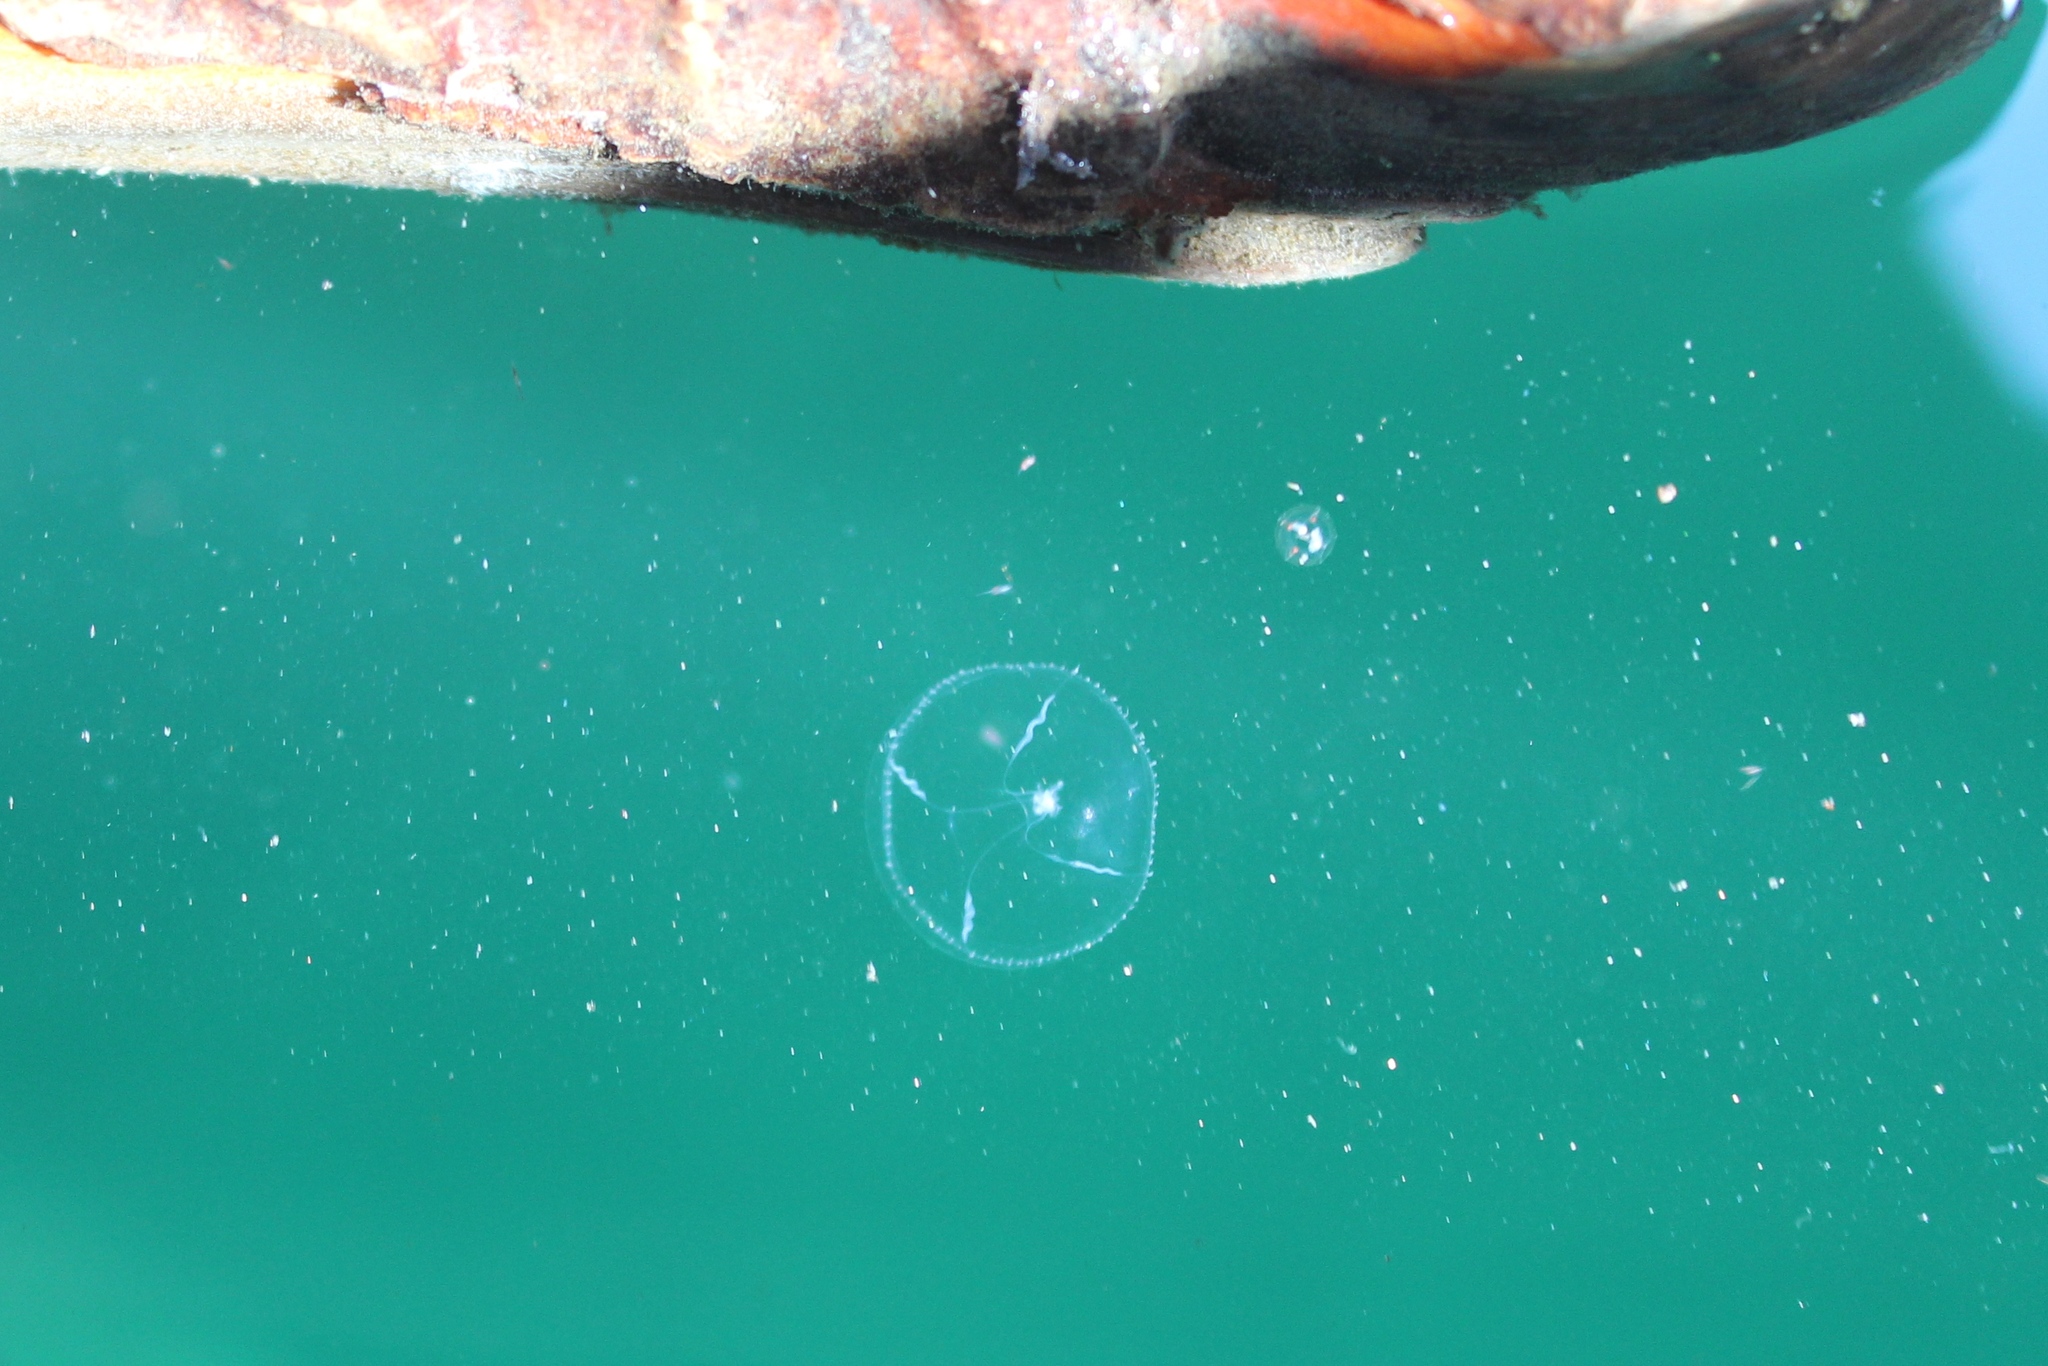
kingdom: Animalia
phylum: Cnidaria
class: Hydrozoa
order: Leptothecata
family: Eirenidae
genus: Eutonina
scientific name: Eutonina indicans
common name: Umbrella jellyfish
